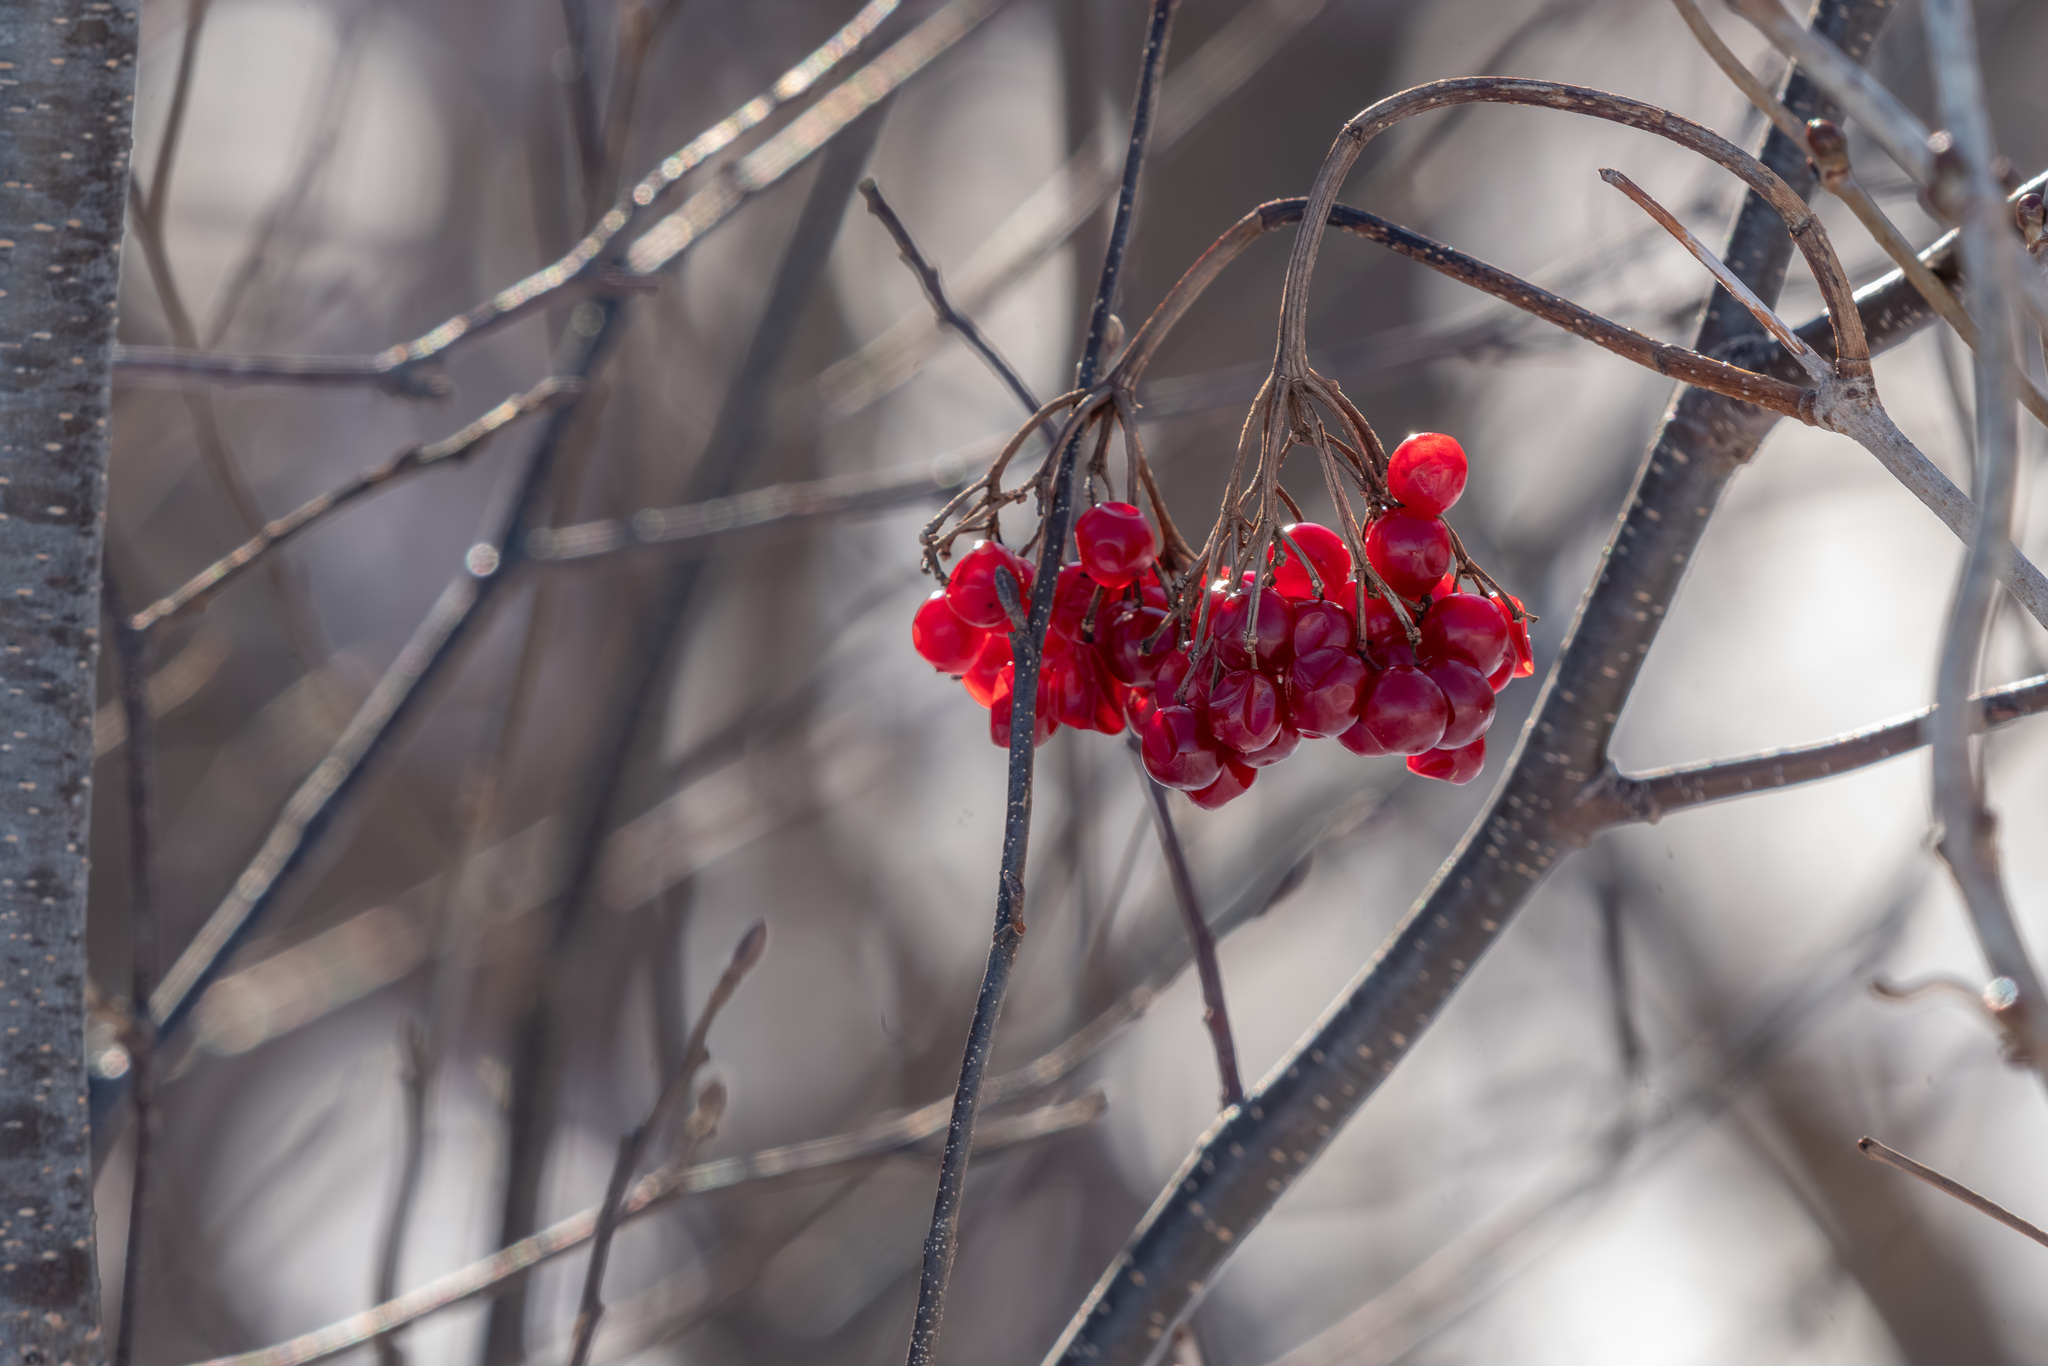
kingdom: Plantae
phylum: Tracheophyta
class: Magnoliopsida
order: Dipsacales
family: Viburnaceae
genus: Viburnum
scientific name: Viburnum opulus
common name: Guelder-rose
